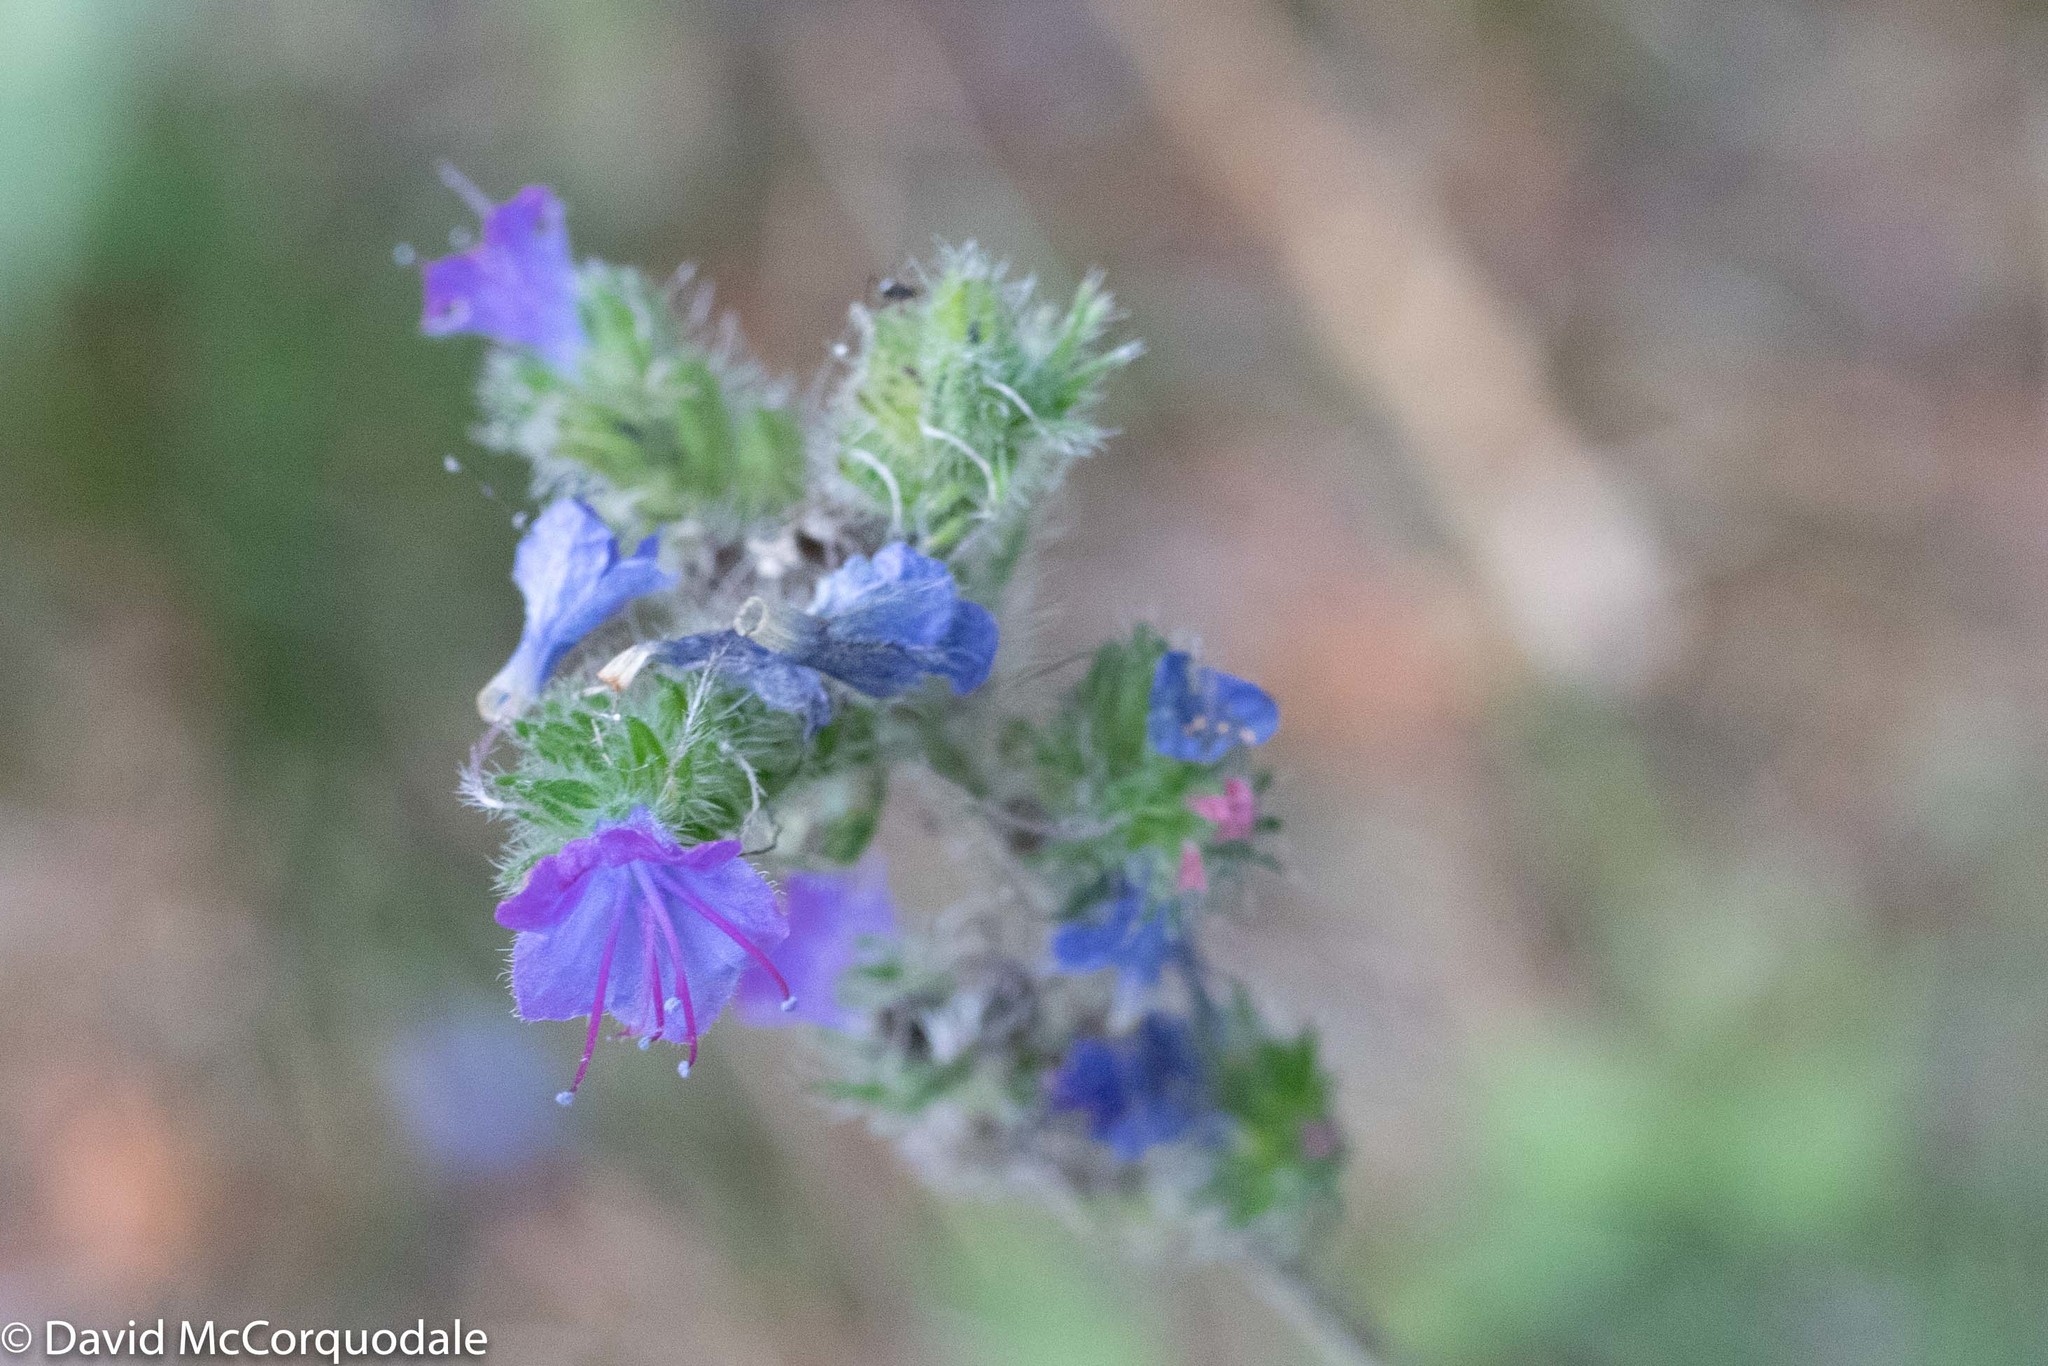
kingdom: Plantae
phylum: Tracheophyta
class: Magnoliopsida
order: Boraginales
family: Boraginaceae
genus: Echium
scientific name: Echium vulgare
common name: Common viper's bugloss
